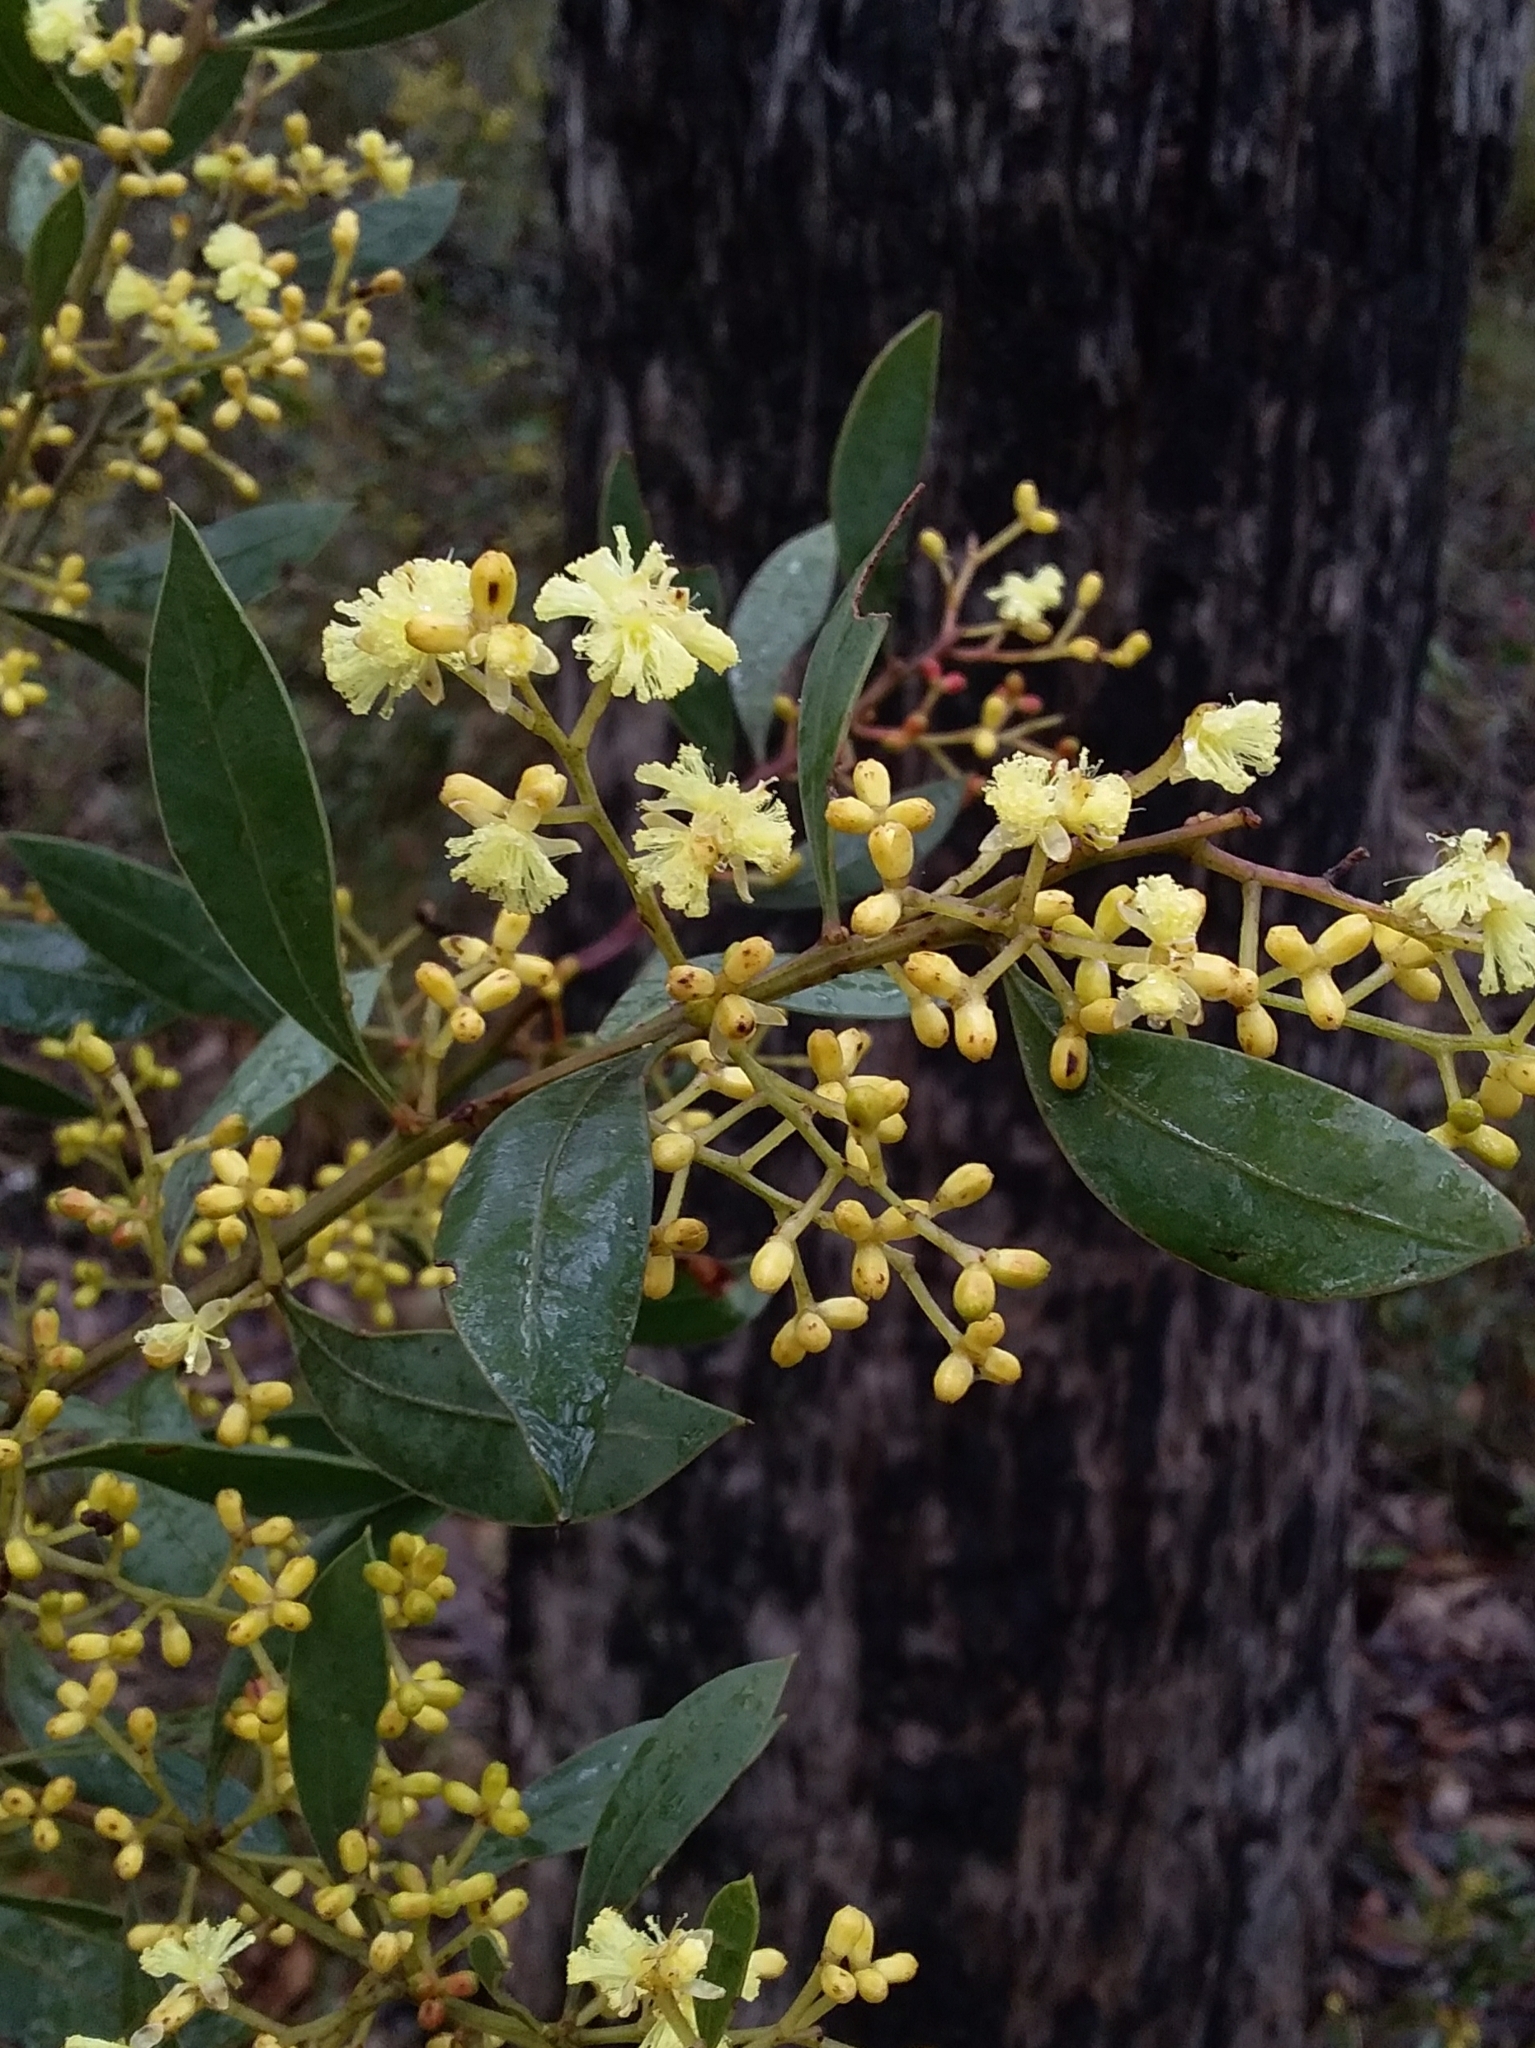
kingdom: Plantae
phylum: Tracheophyta
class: Magnoliopsida
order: Fabales
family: Fabaceae
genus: Acacia
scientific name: Acacia myrtifolia
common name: Myrtle wattle
